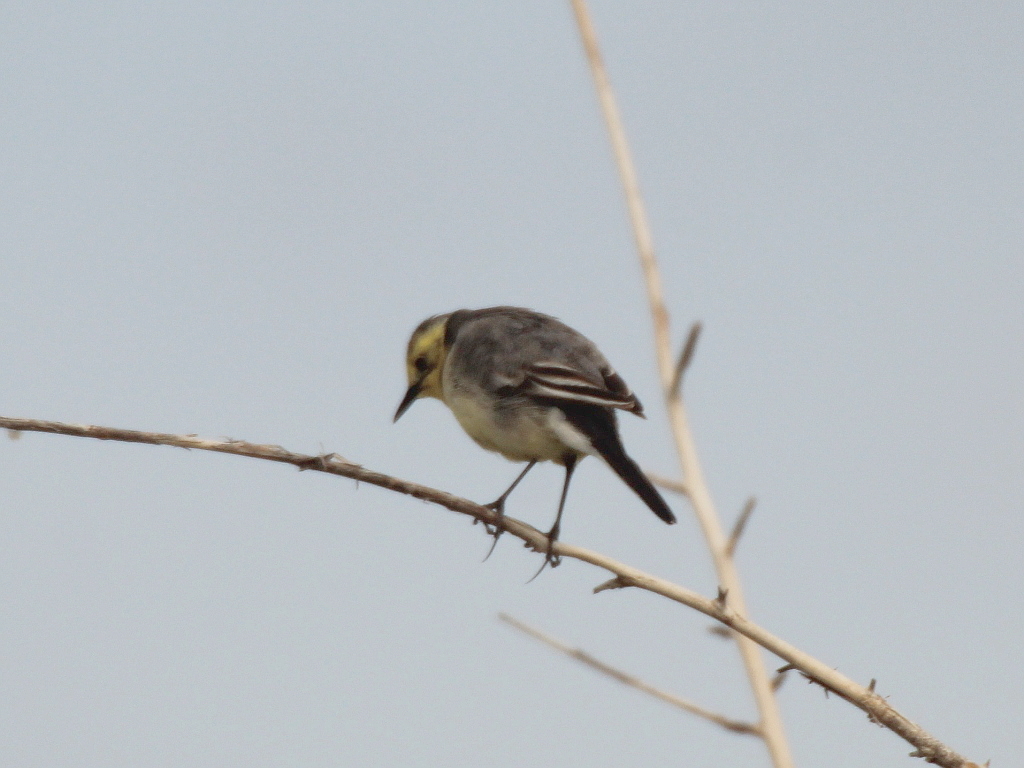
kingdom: Animalia
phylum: Chordata
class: Aves
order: Passeriformes
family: Motacillidae
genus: Motacilla
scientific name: Motacilla citreola
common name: Citrine wagtail
